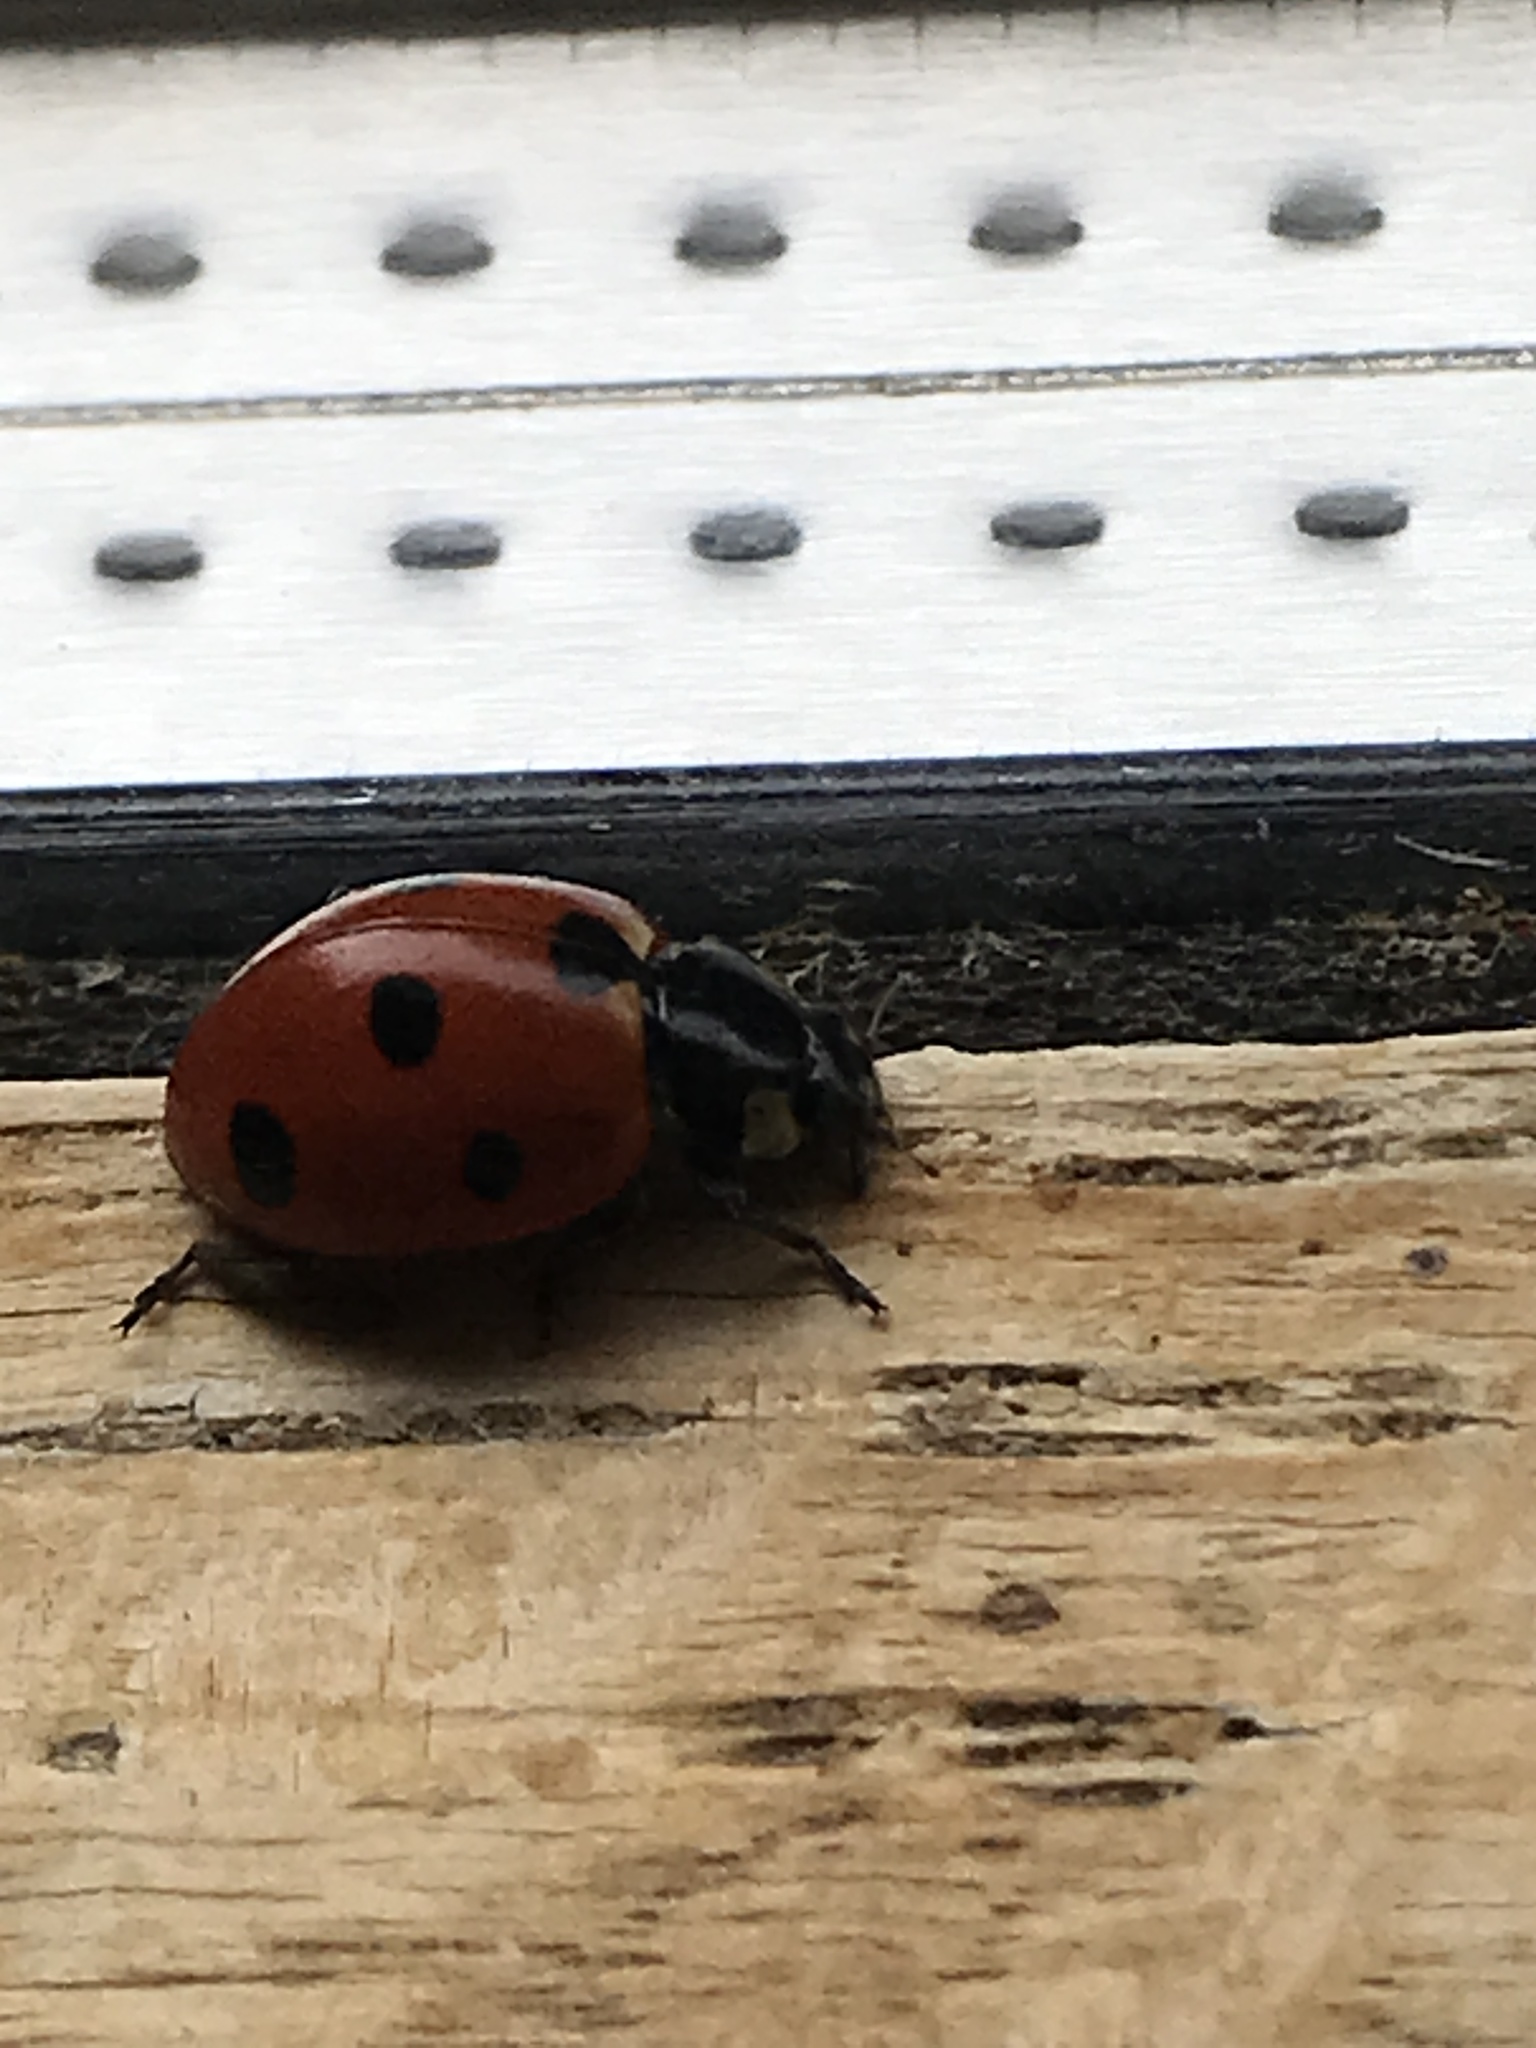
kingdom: Animalia
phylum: Arthropoda
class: Insecta
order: Coleoptera
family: Coccinellidae
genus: Coccinella
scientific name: Coccinella septempunctata
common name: Sevenspotted lady beetle
